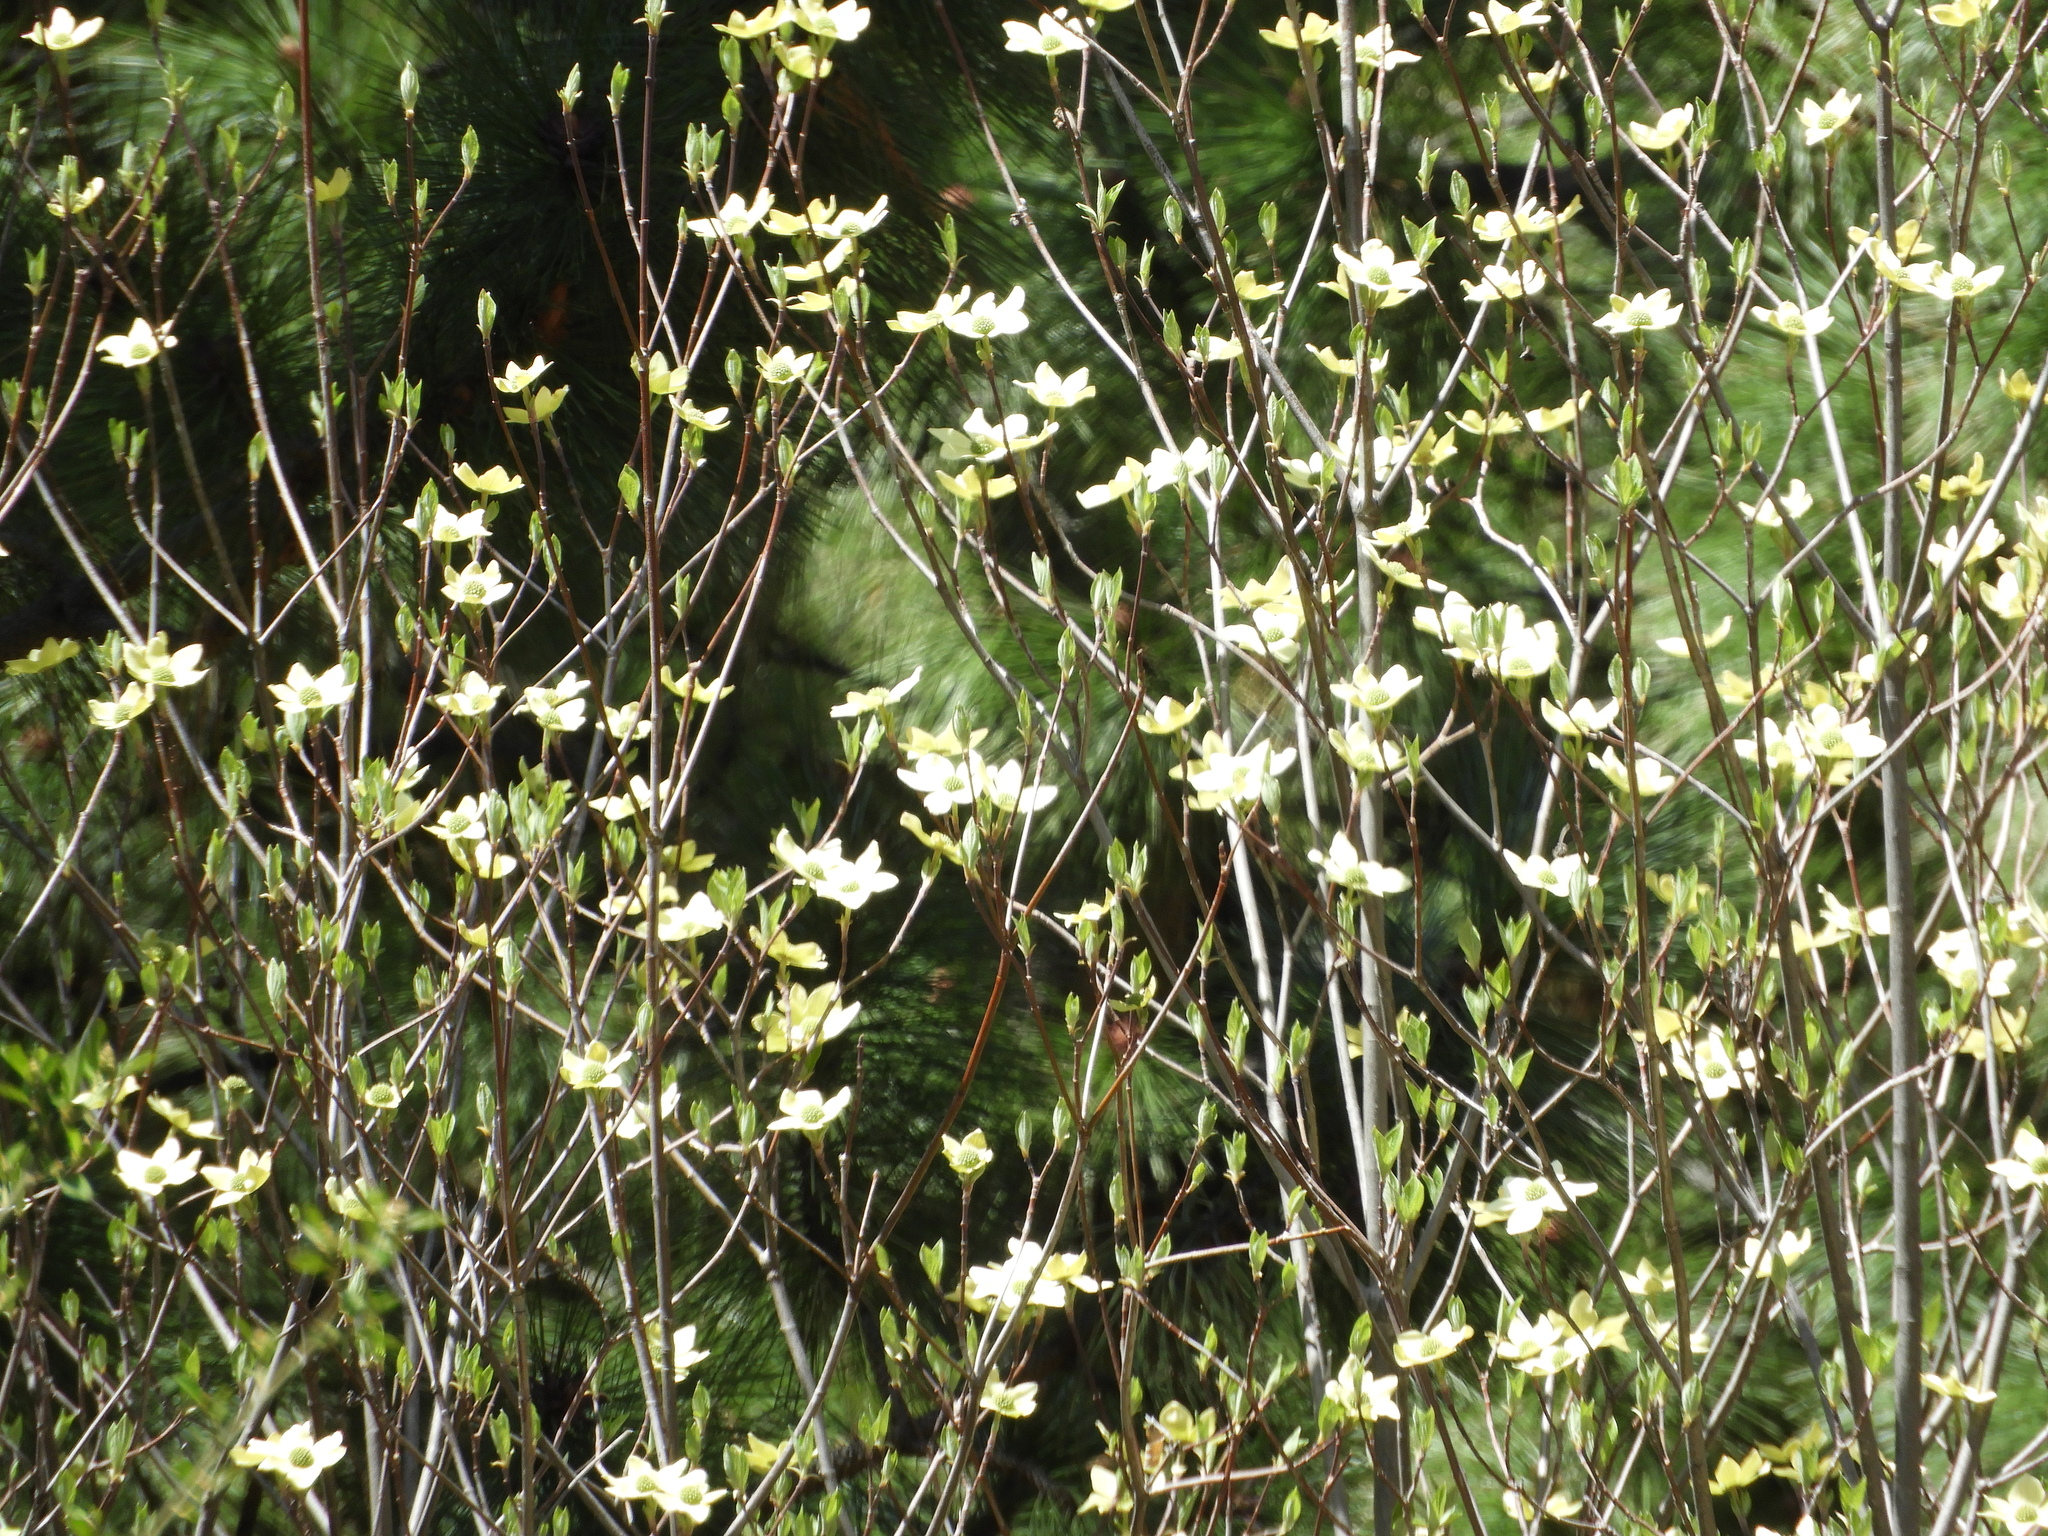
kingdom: Plantae
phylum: Tracheophyta
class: Magnoliopsida
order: Cornales
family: Cornaceae
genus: Cornus
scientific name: Cornus nuttallii
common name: Pacific dogwood
